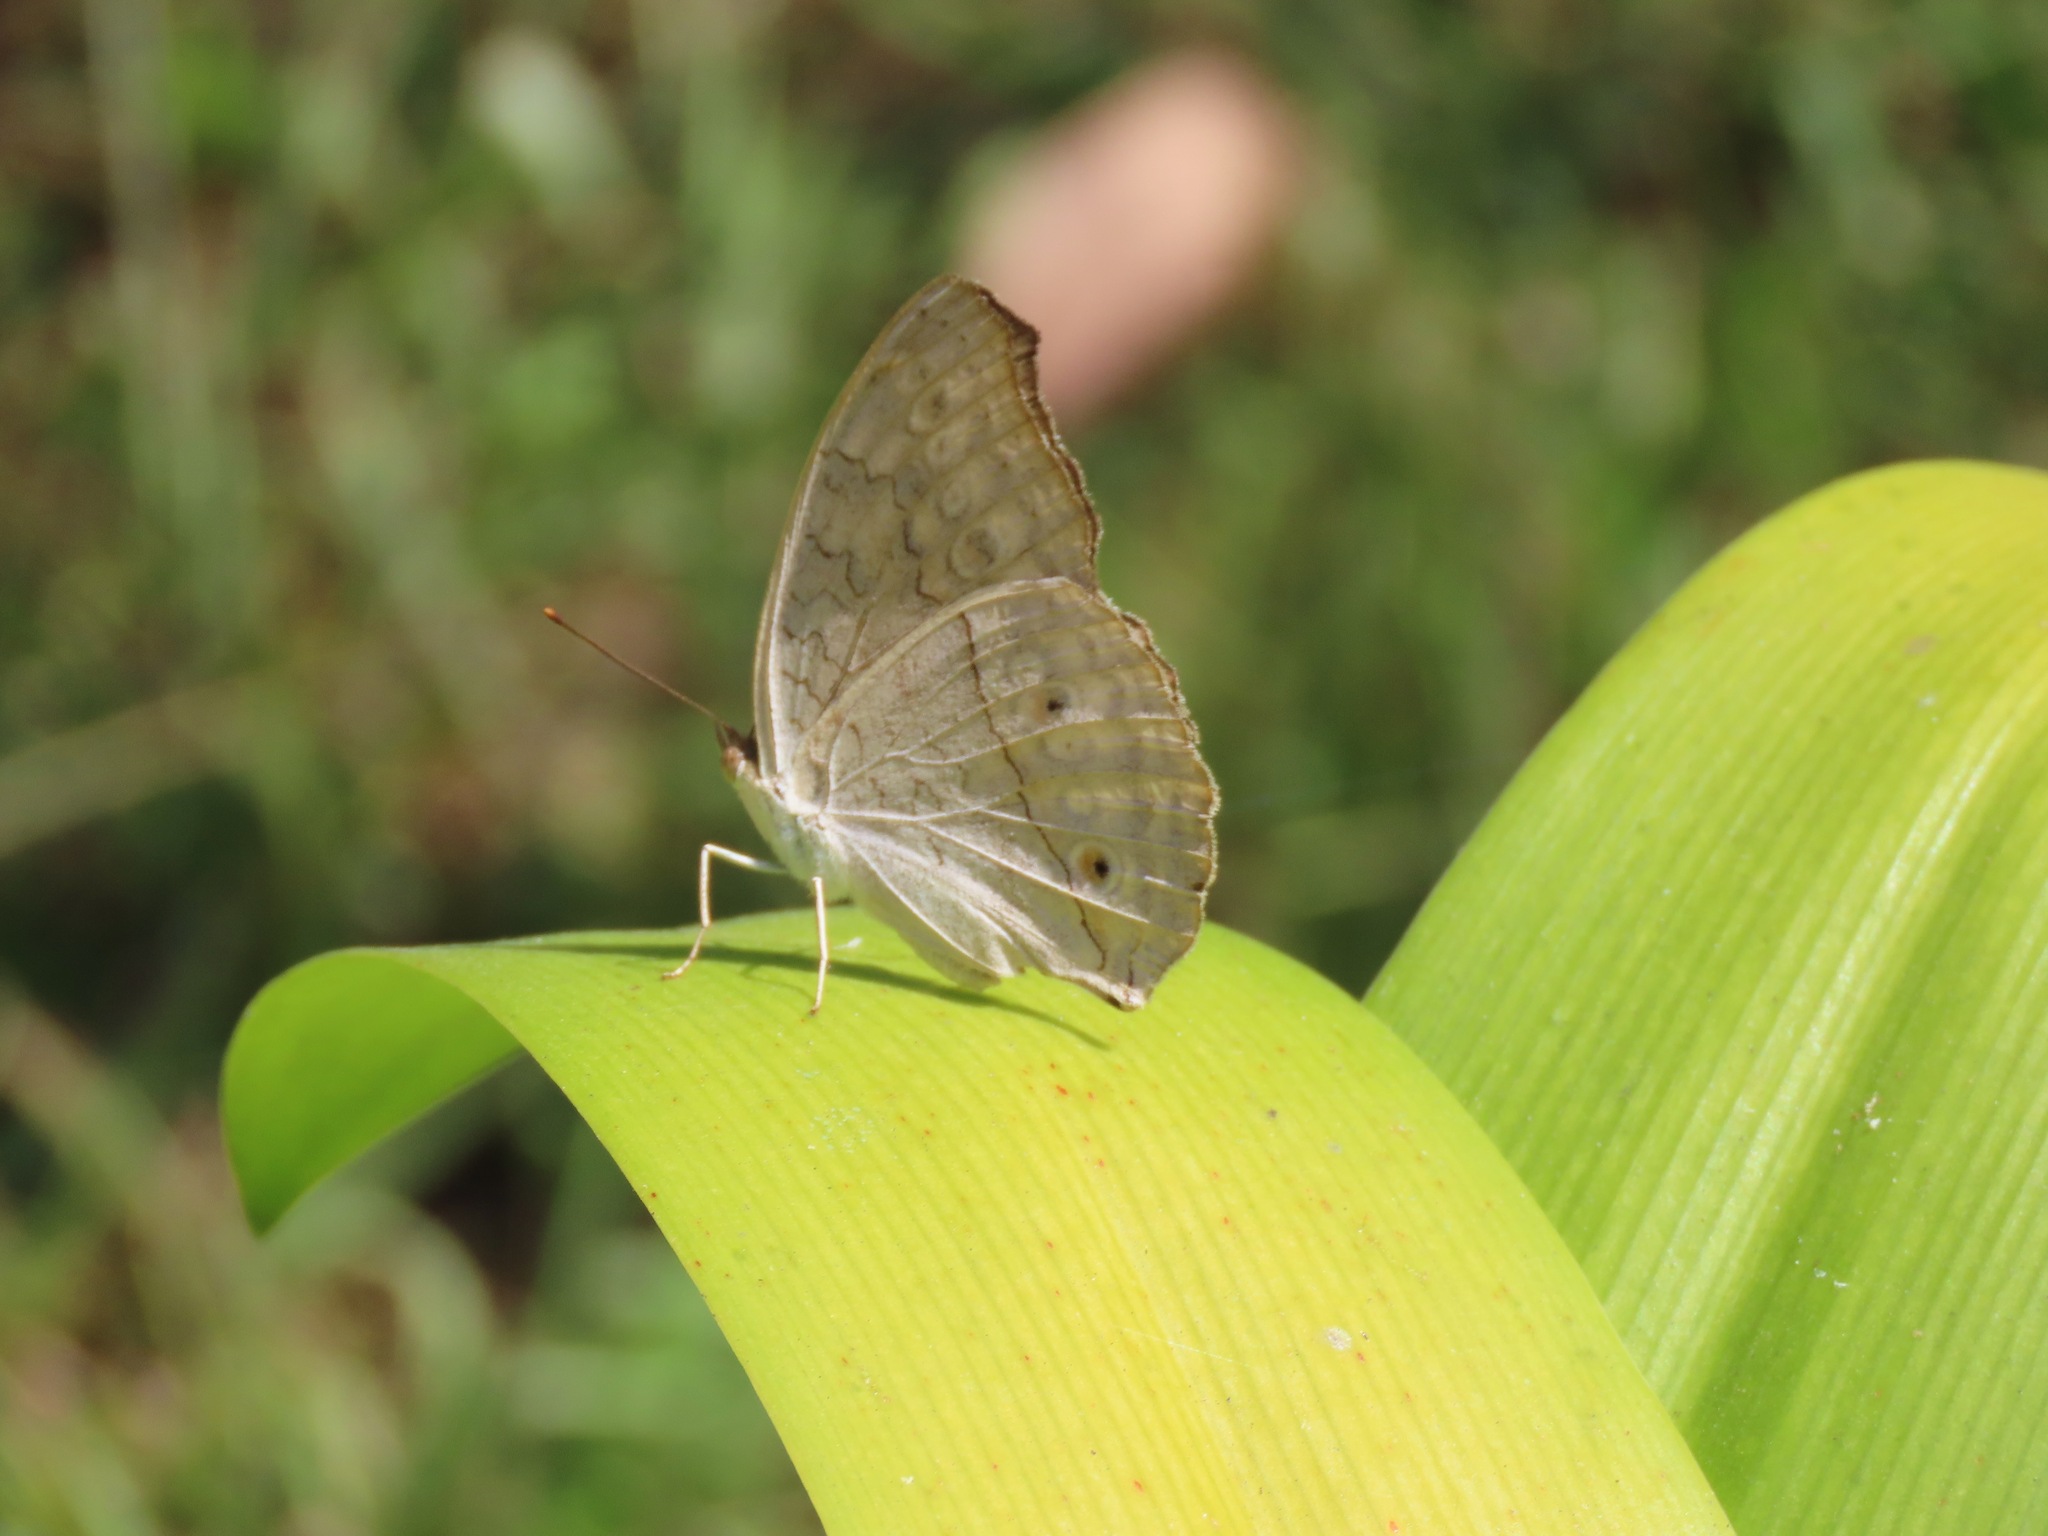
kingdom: Animalia
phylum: Arthropoda
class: Insecta
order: Lepidoptera
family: Nymphalidae
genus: Junonia
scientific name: Junonia atlites
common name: Grey pansy
